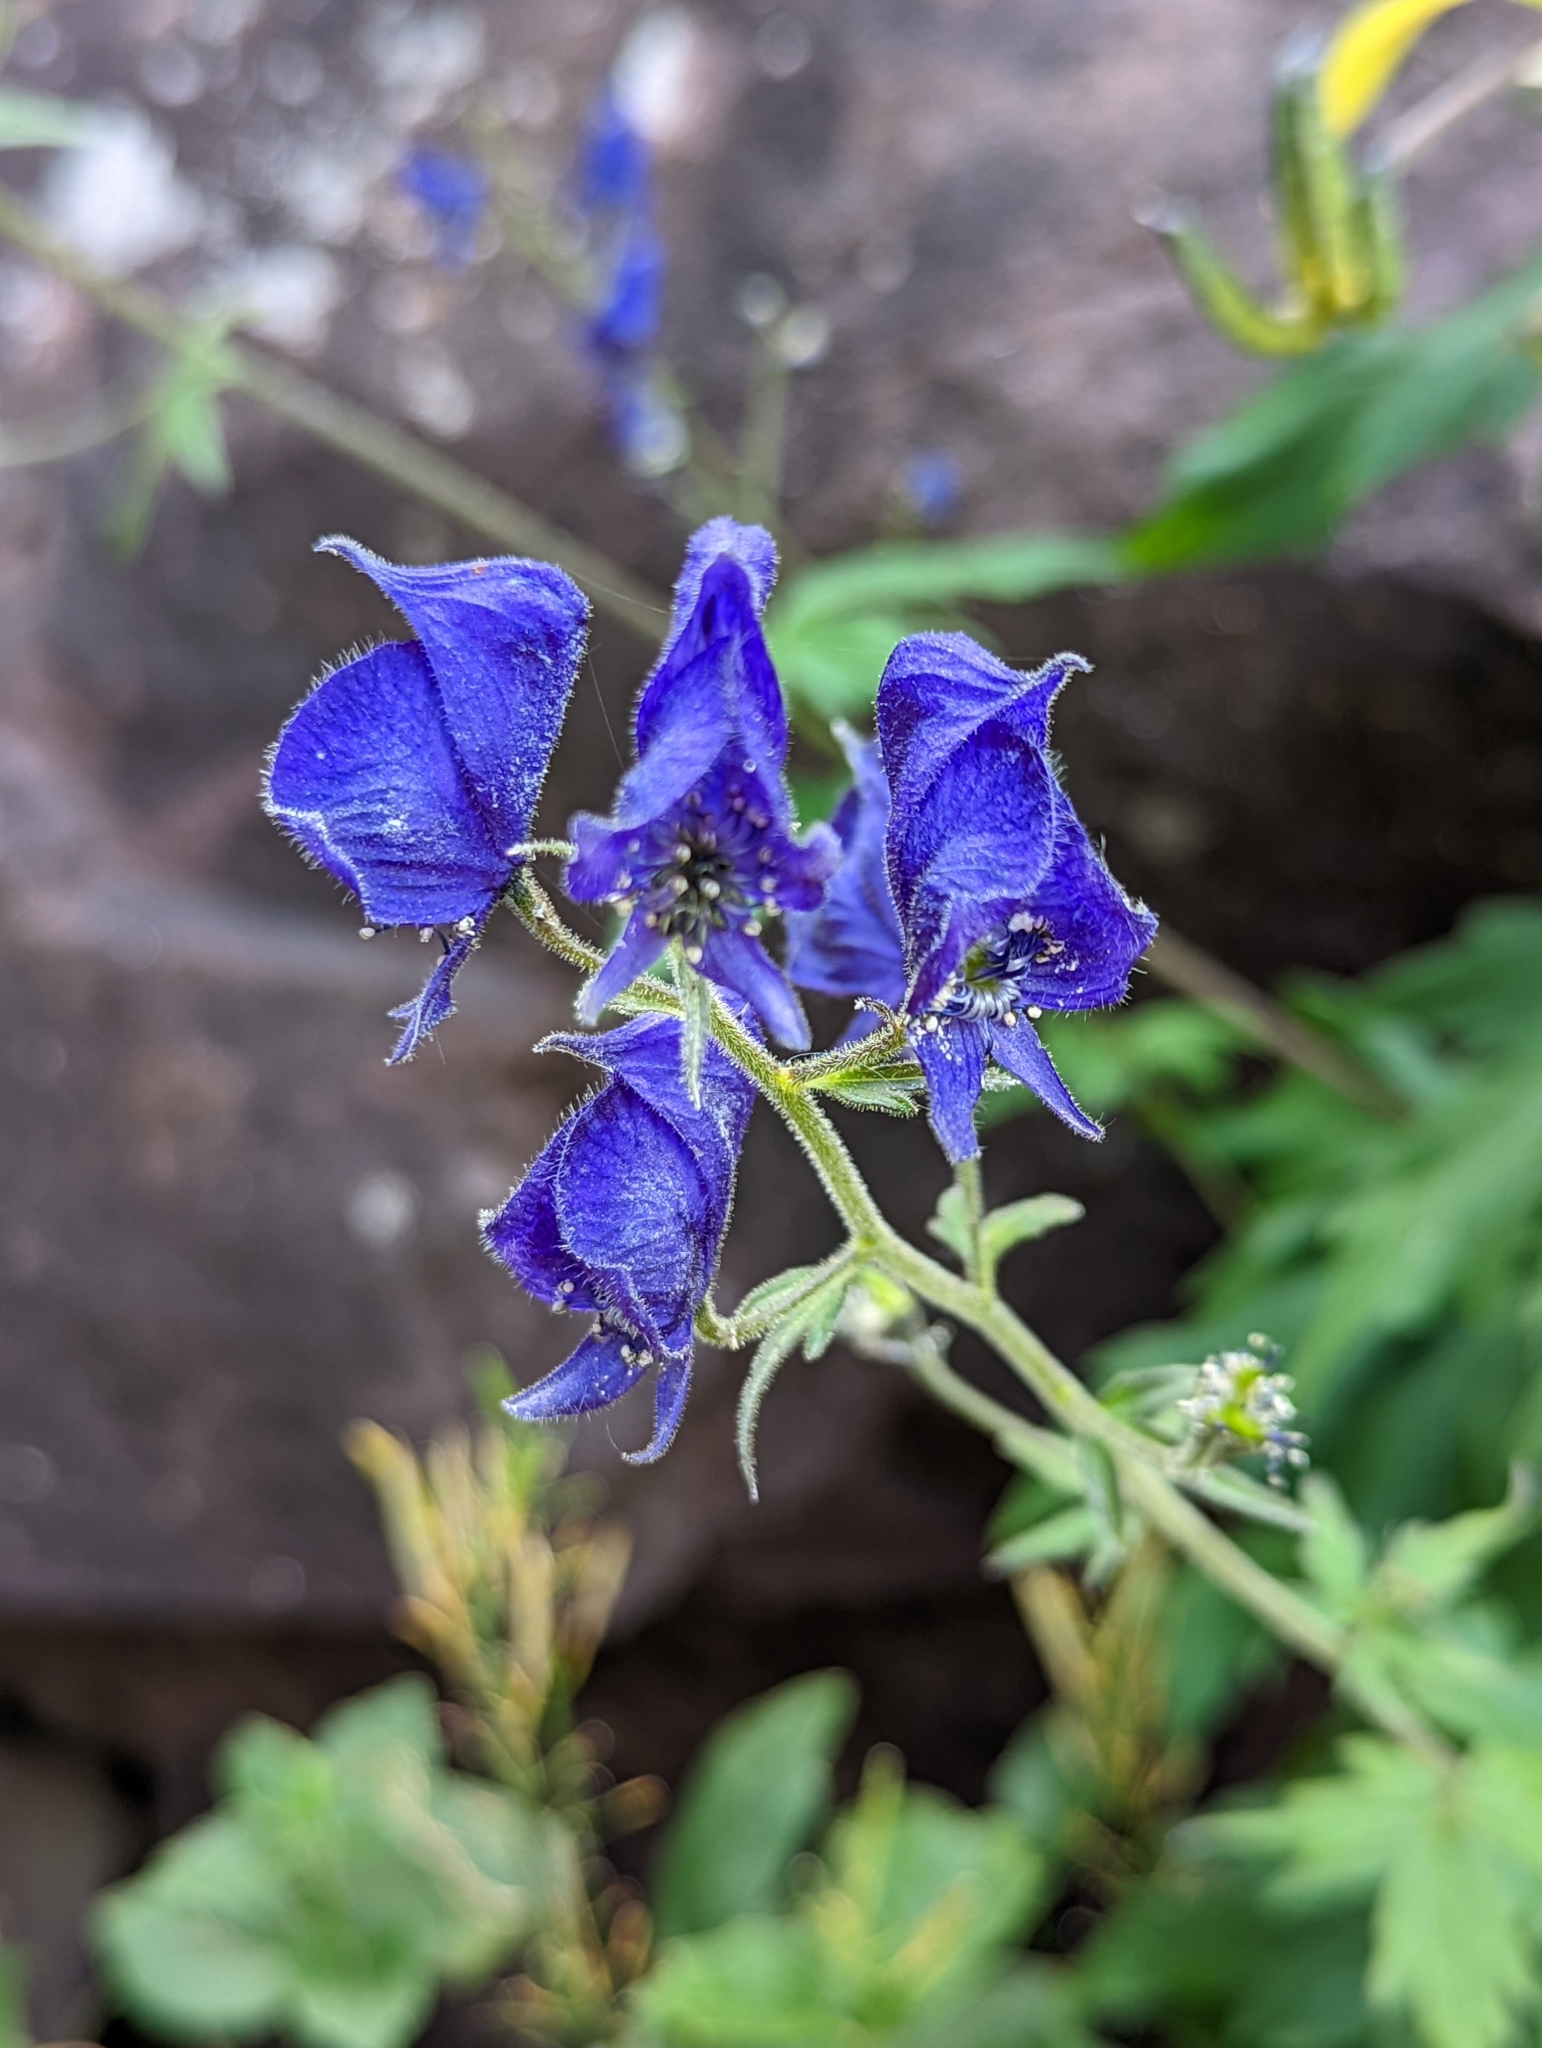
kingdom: Plantae
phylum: Tracheophyta
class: Magnoliopsida
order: Ranunculales
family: Ranunculaceae
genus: Aconitum
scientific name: Aconitum columbianum
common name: Columbia aconite
